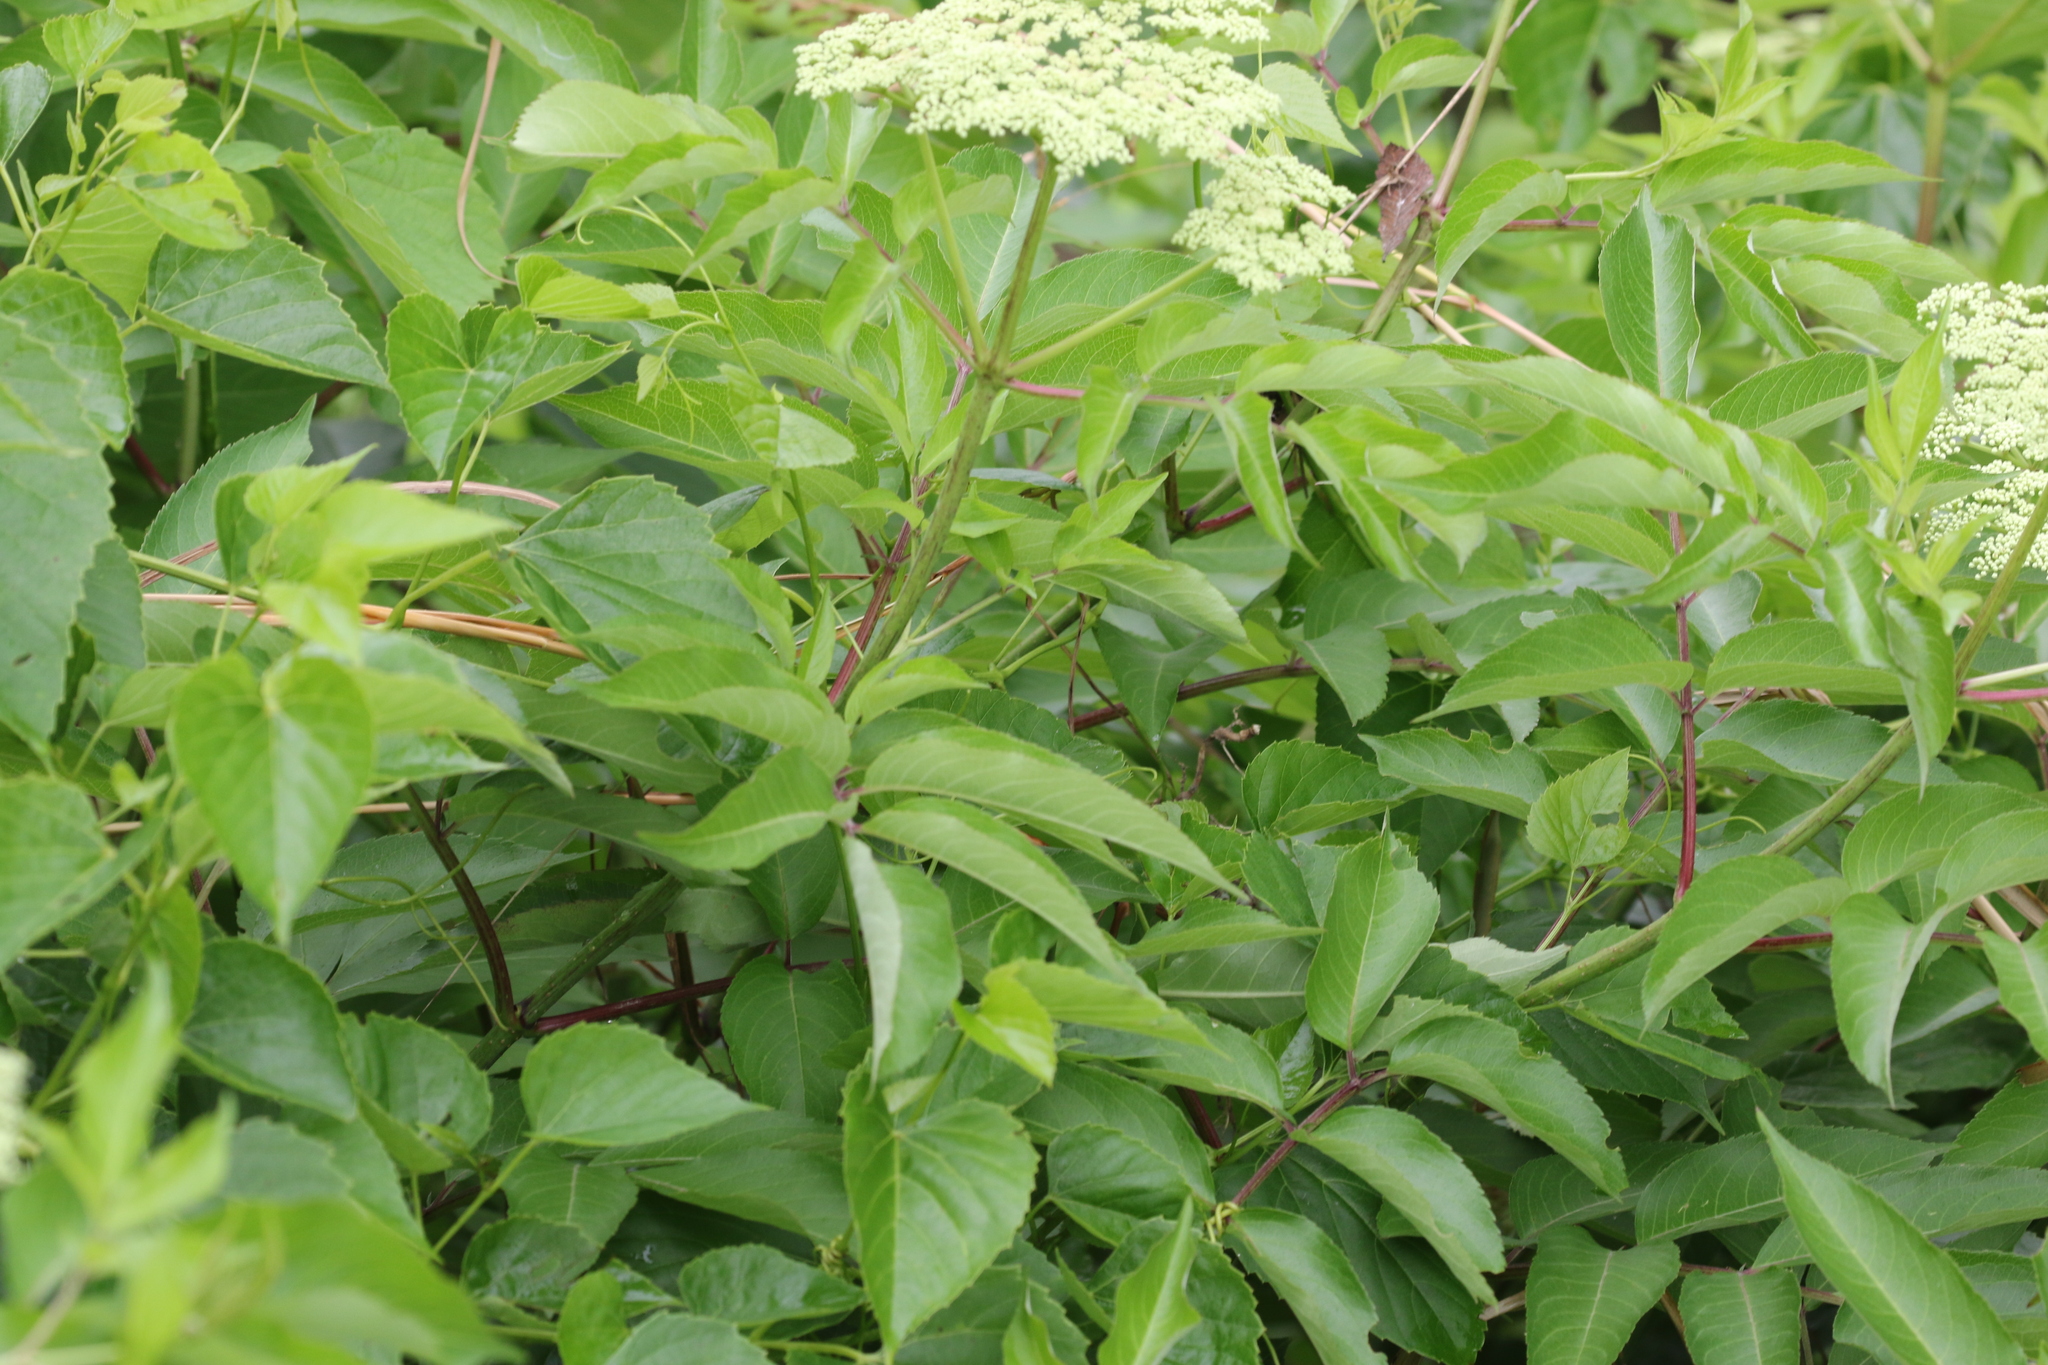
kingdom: Plantae
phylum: Tracheophyta
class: Magnoliopsida
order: Dipsacales
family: Viburnaceae
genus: Sambucus
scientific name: Sambucus canadensis
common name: American elder
